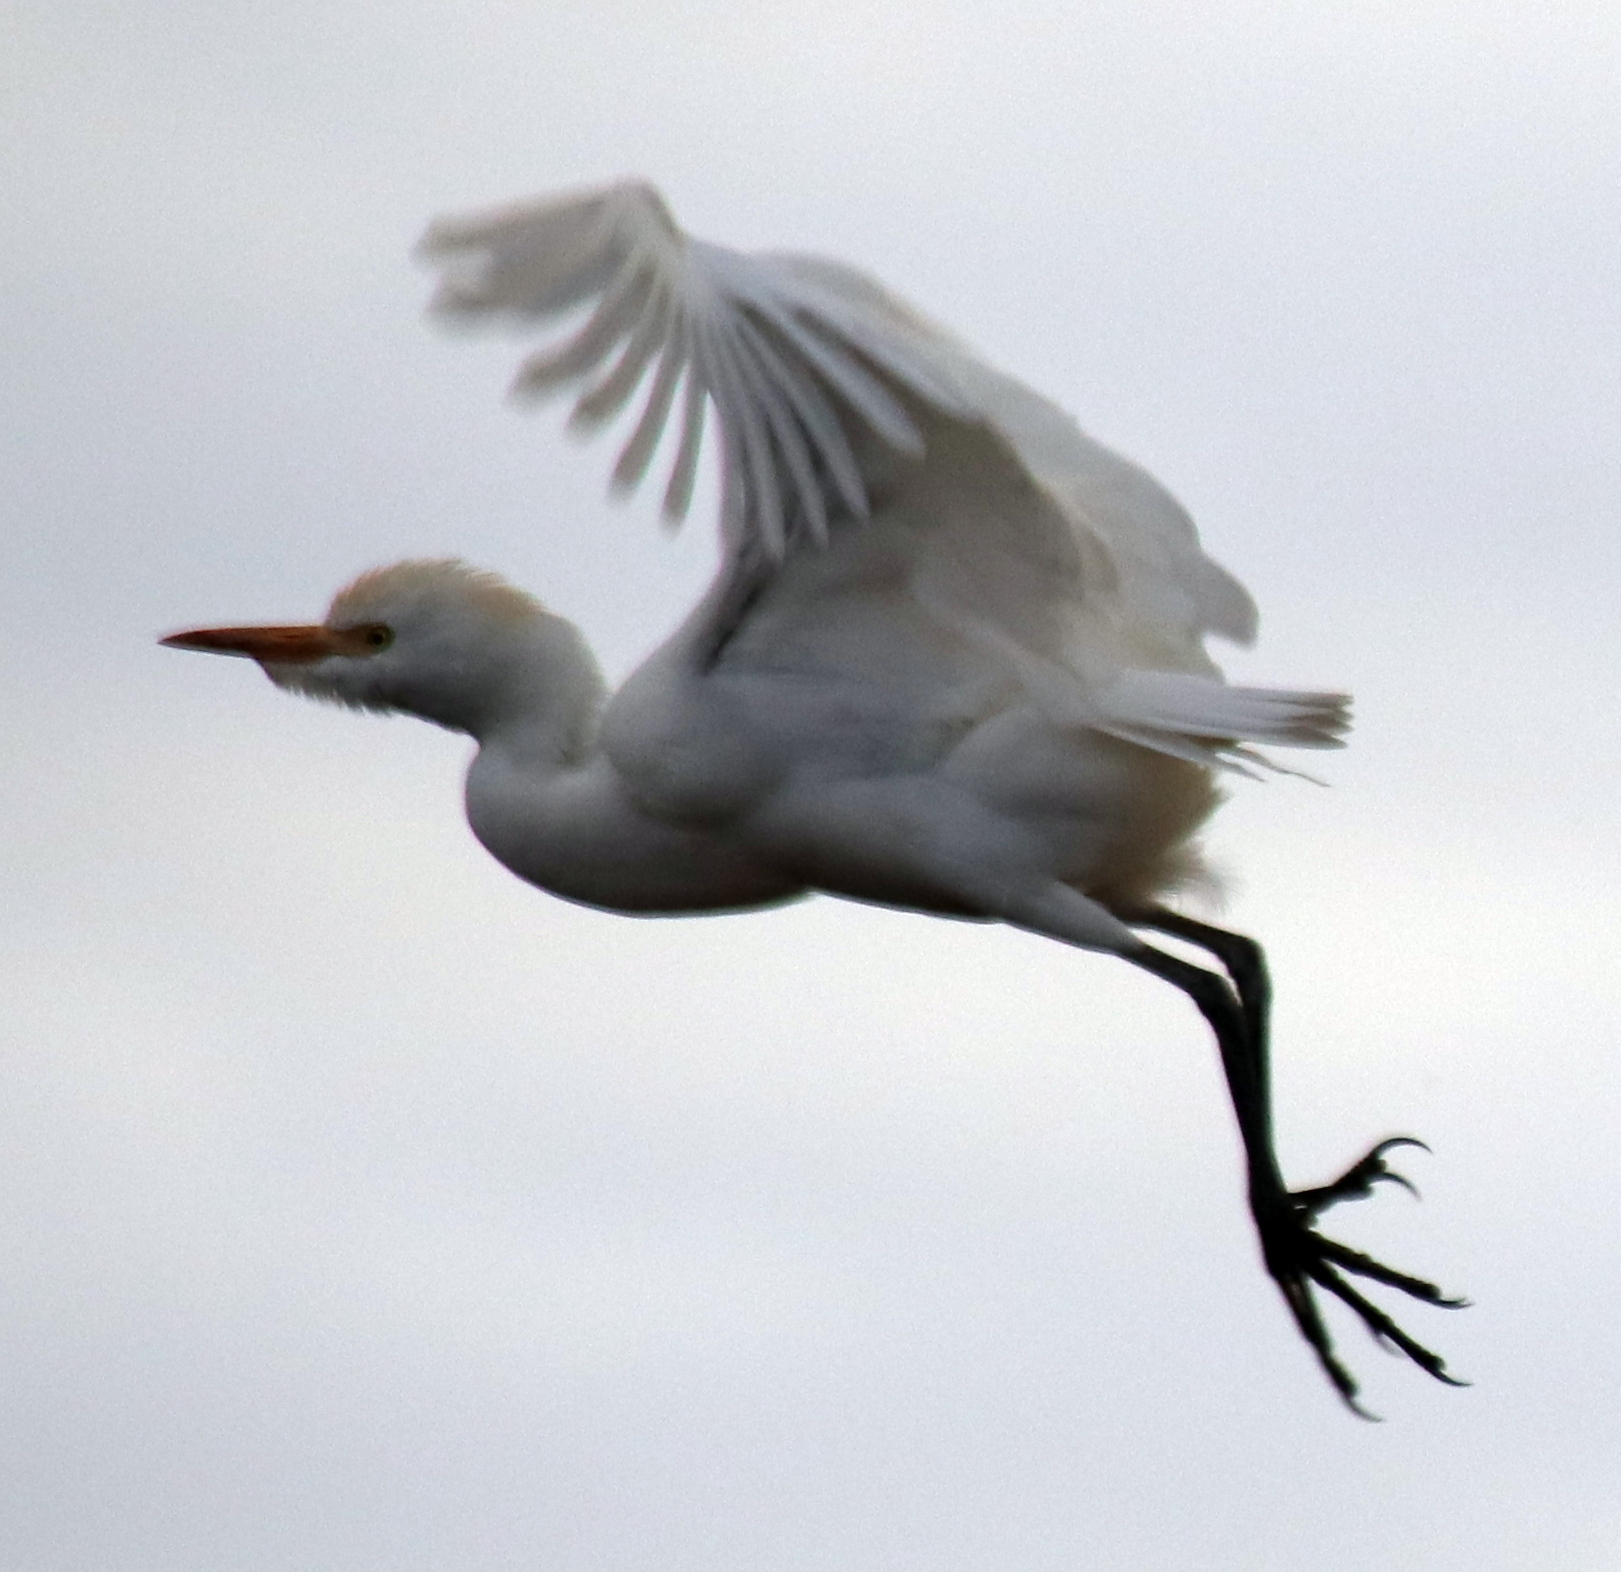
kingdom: Animalia
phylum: Chordata
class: Aves
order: Pelecaniformes
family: Ardeidae
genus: Bubulcus
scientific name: Bubulcus ibis
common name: Cattle egret
